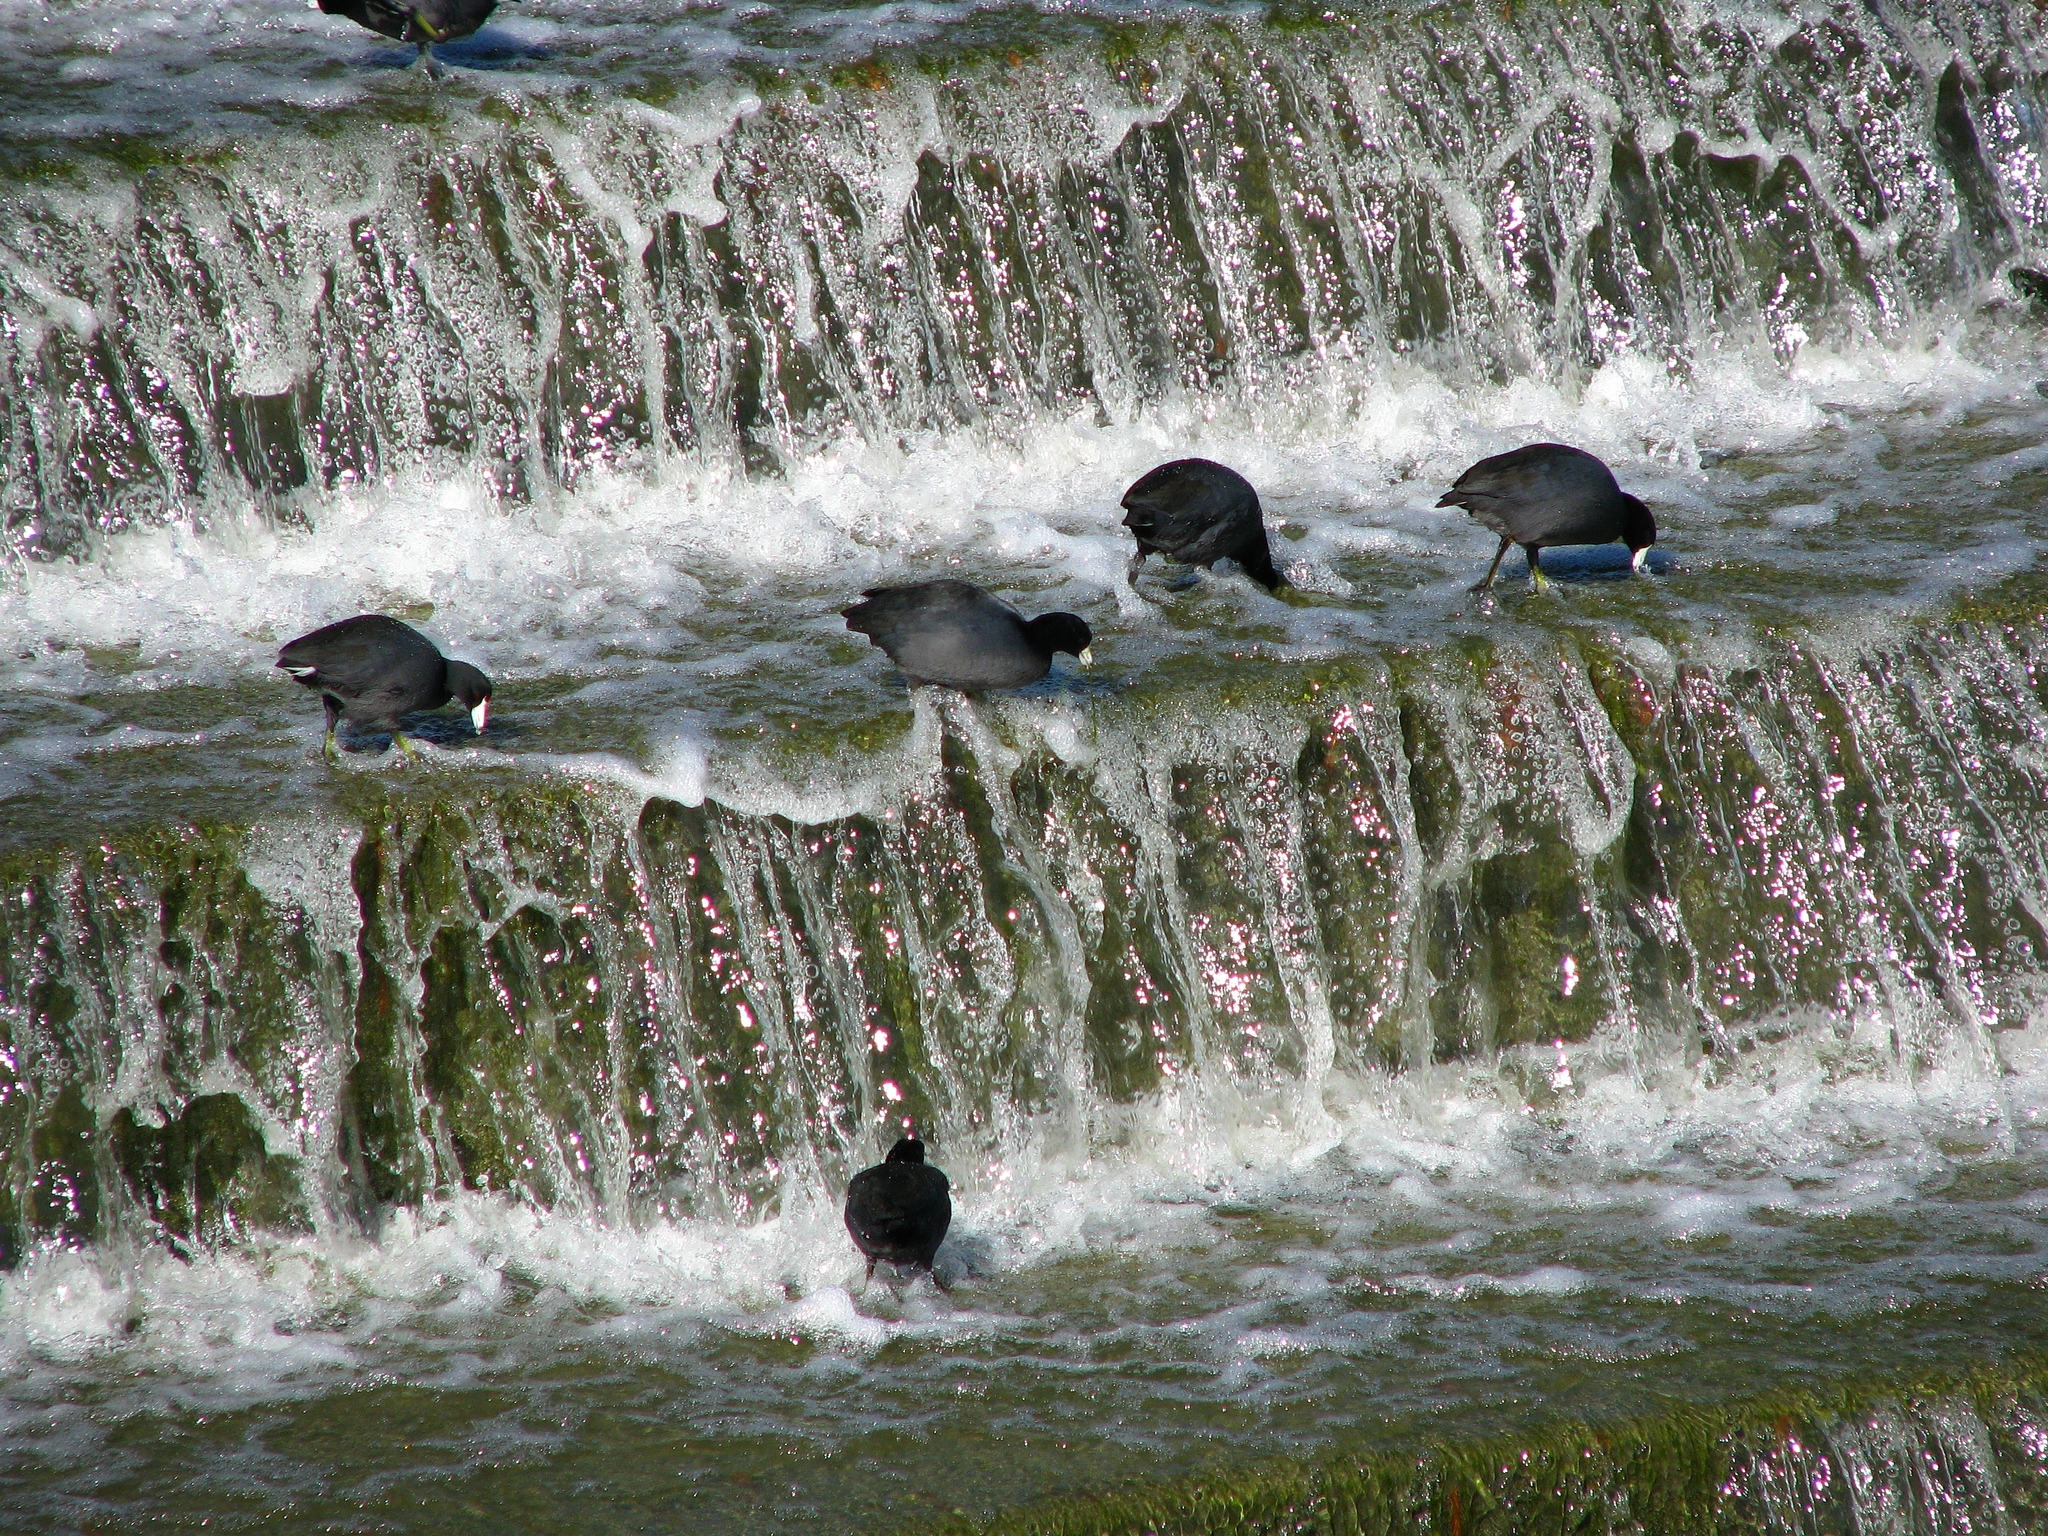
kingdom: Animalia
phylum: Chordata
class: Aves
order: Gruiformes
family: Rallidae
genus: Fulica
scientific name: Fulica americana
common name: American coot
